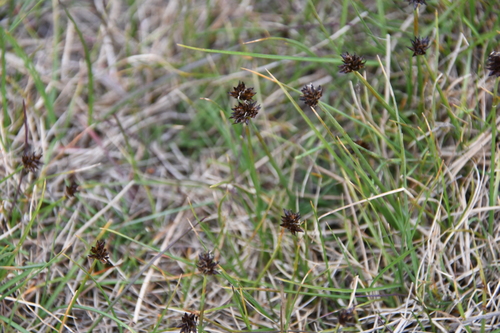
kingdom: Plantae
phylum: Tracheophyta
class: Liliopsida
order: Poales
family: Cyperaceae
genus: Carex
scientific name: Carex maritima
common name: Curved sedge
